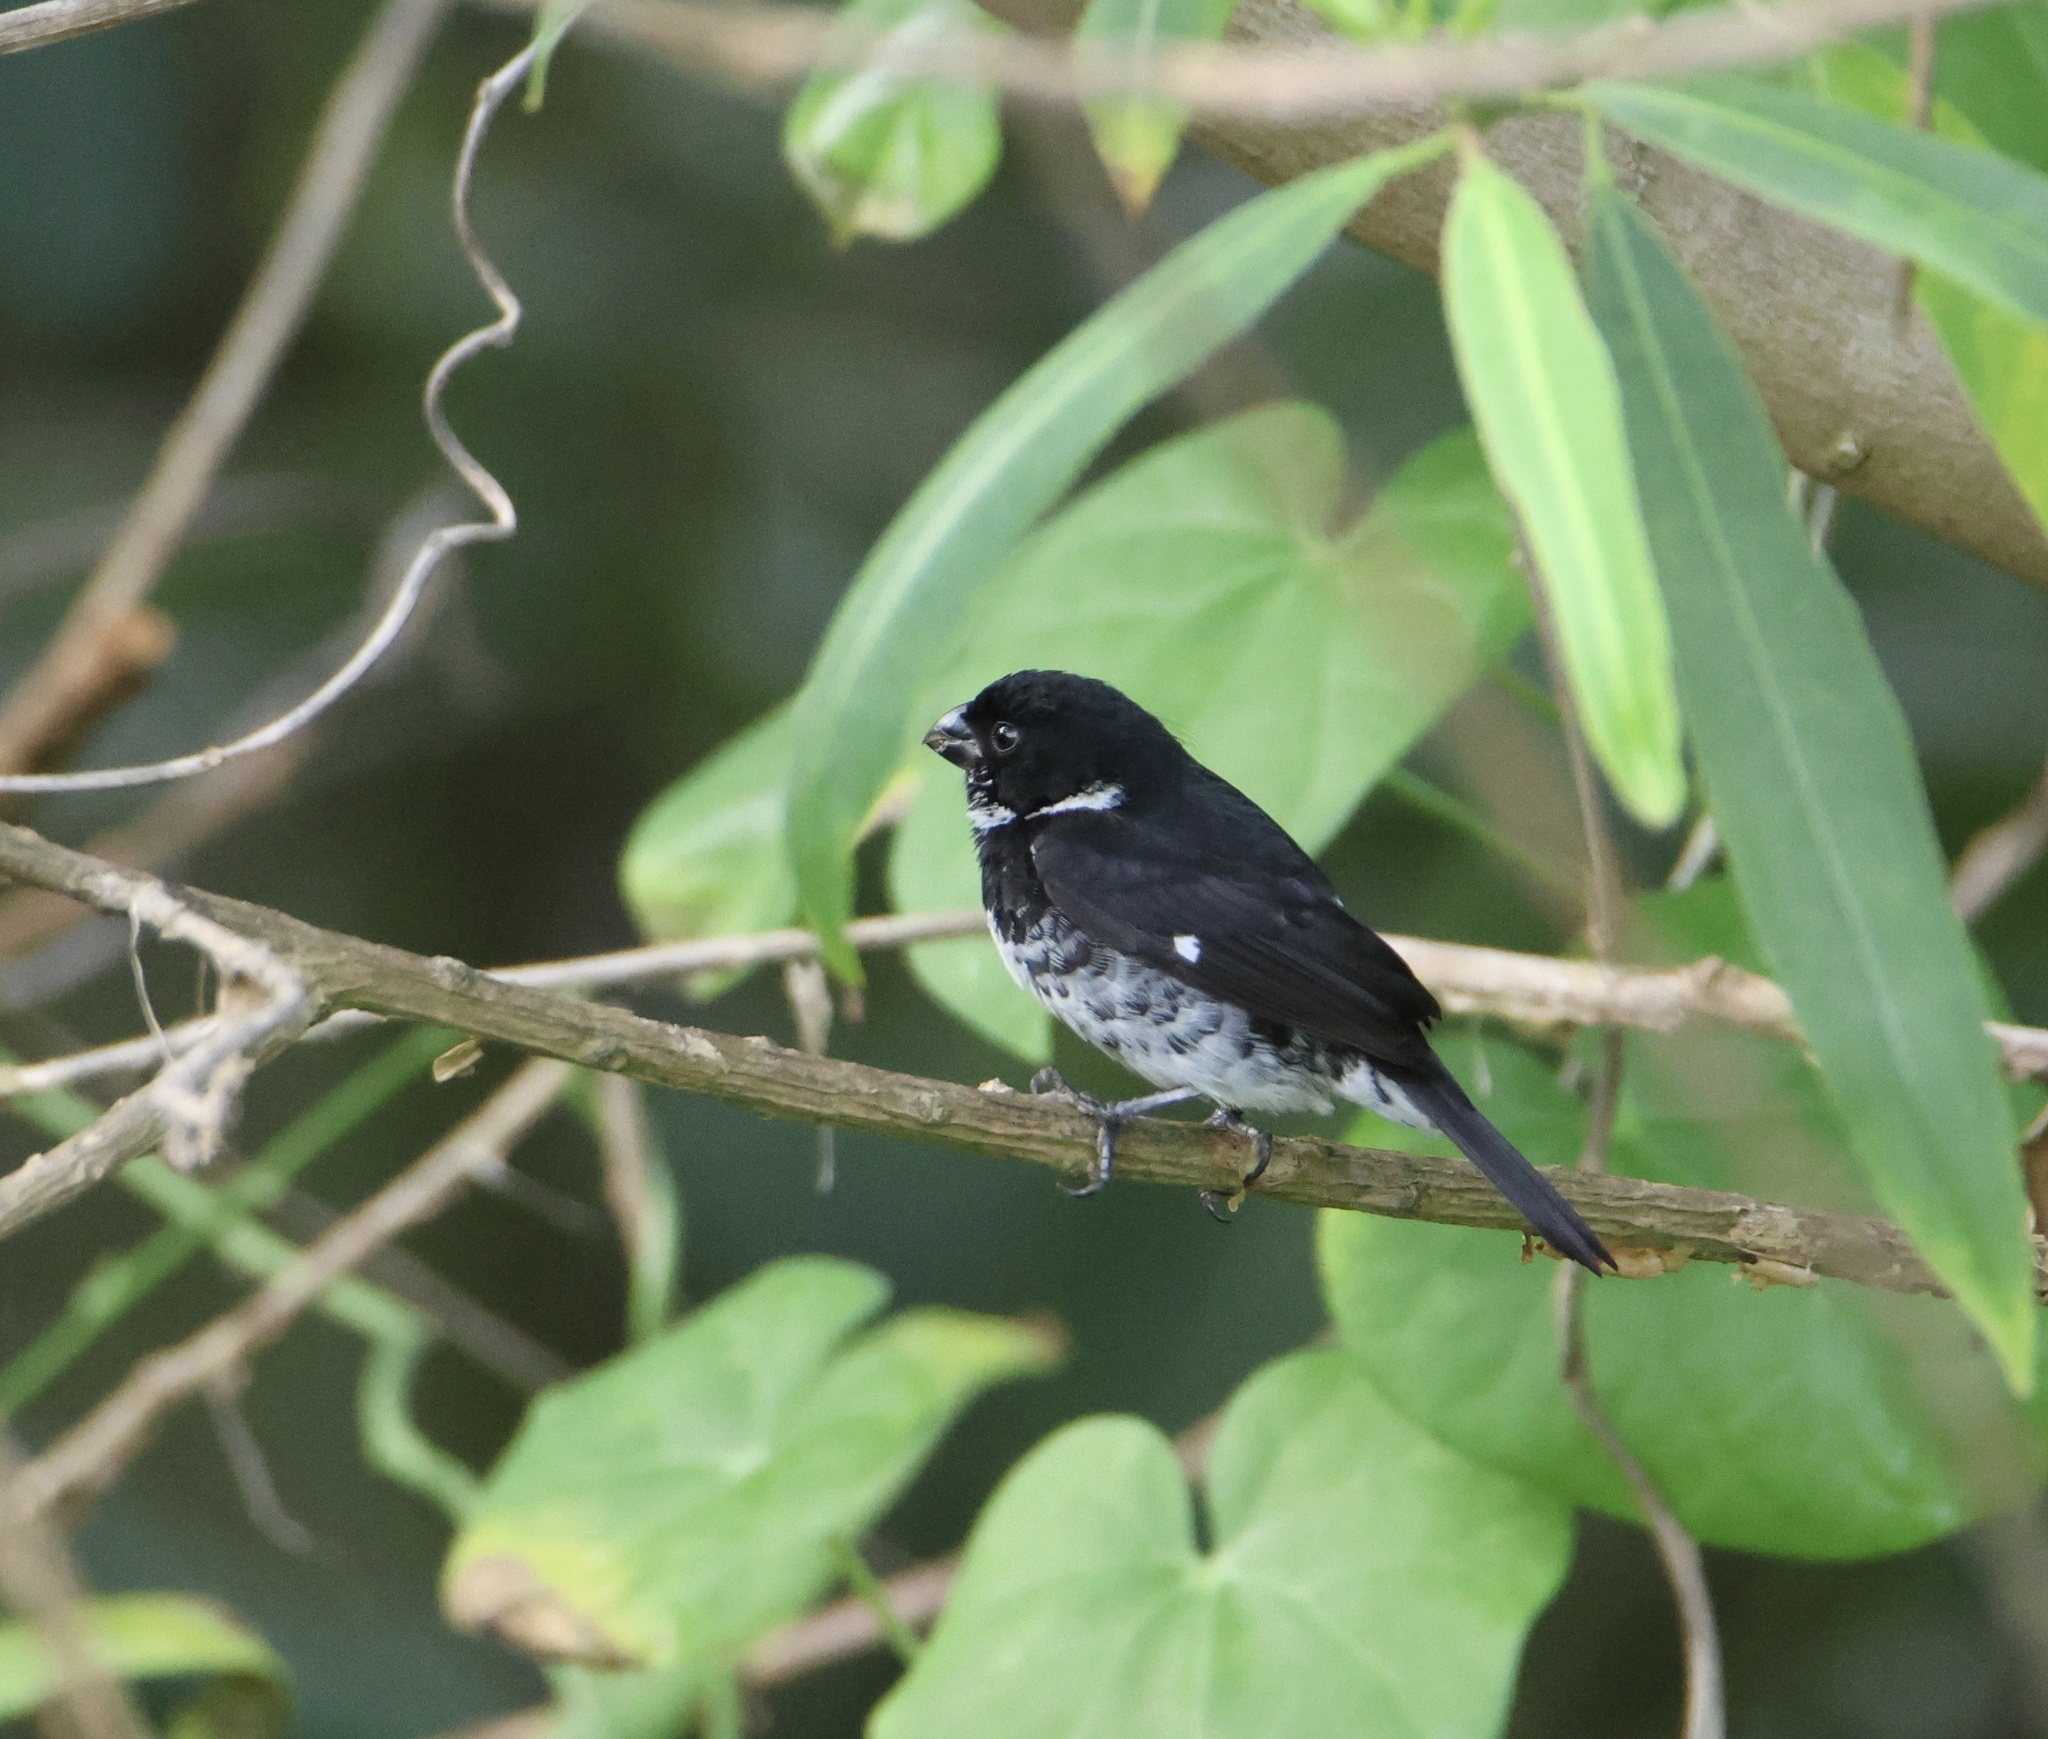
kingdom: Animalia
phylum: Chordata
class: Aves
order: Passeriformes
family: Thraupidae
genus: Sporophila
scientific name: Sporophila corvina
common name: Variable seedeater
